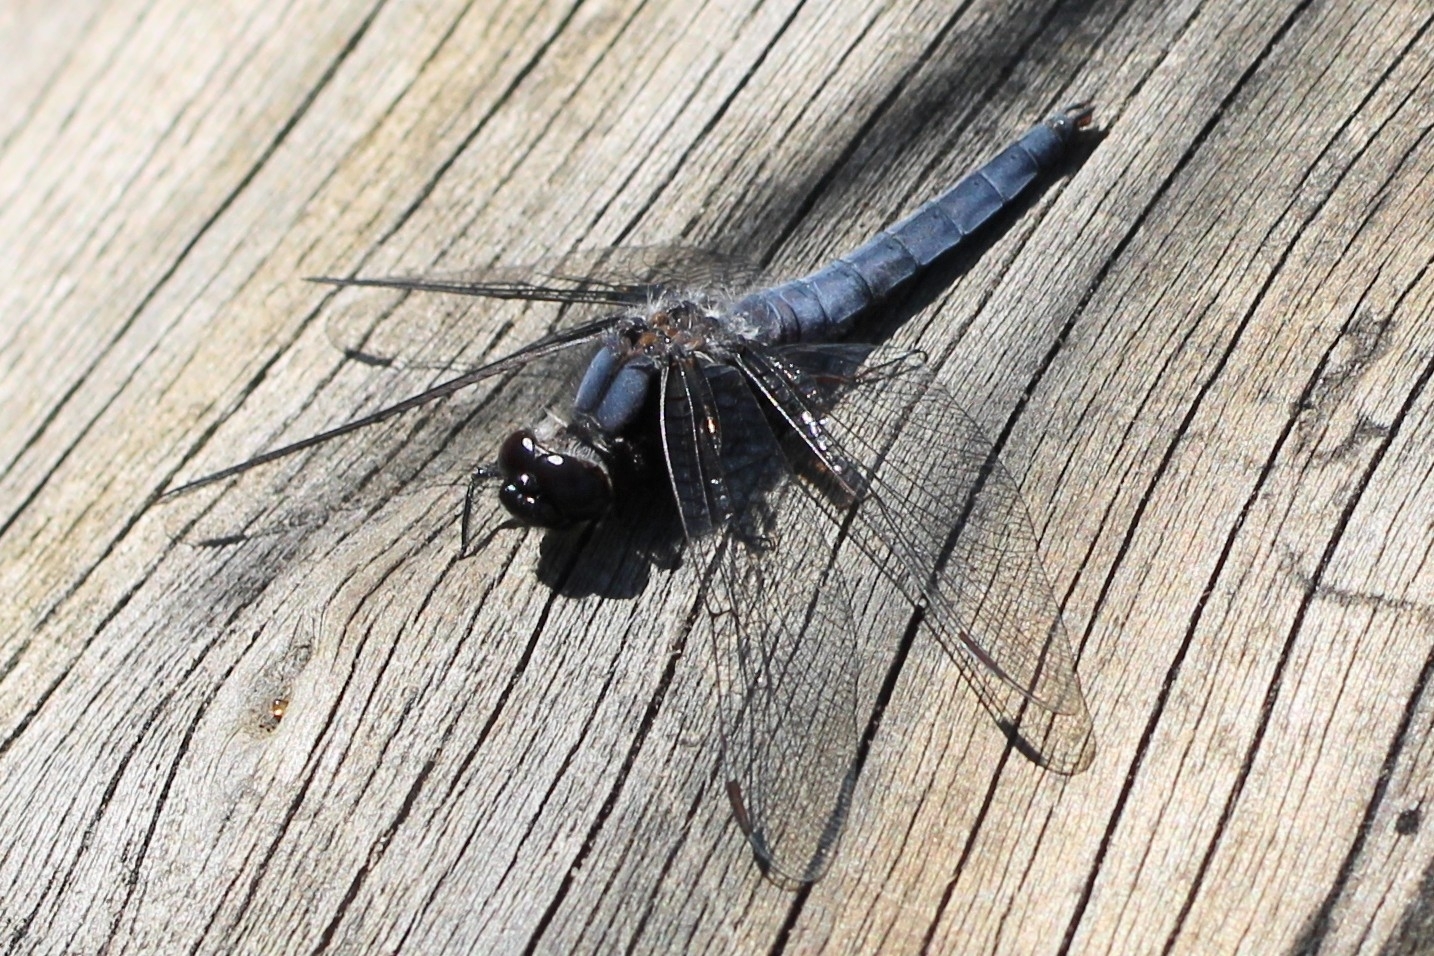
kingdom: Animalia
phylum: Arthropoda
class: Insecta
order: Odonata
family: Libellulidae
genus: Ladona
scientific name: Ladona deplanata
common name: Blue corporal
